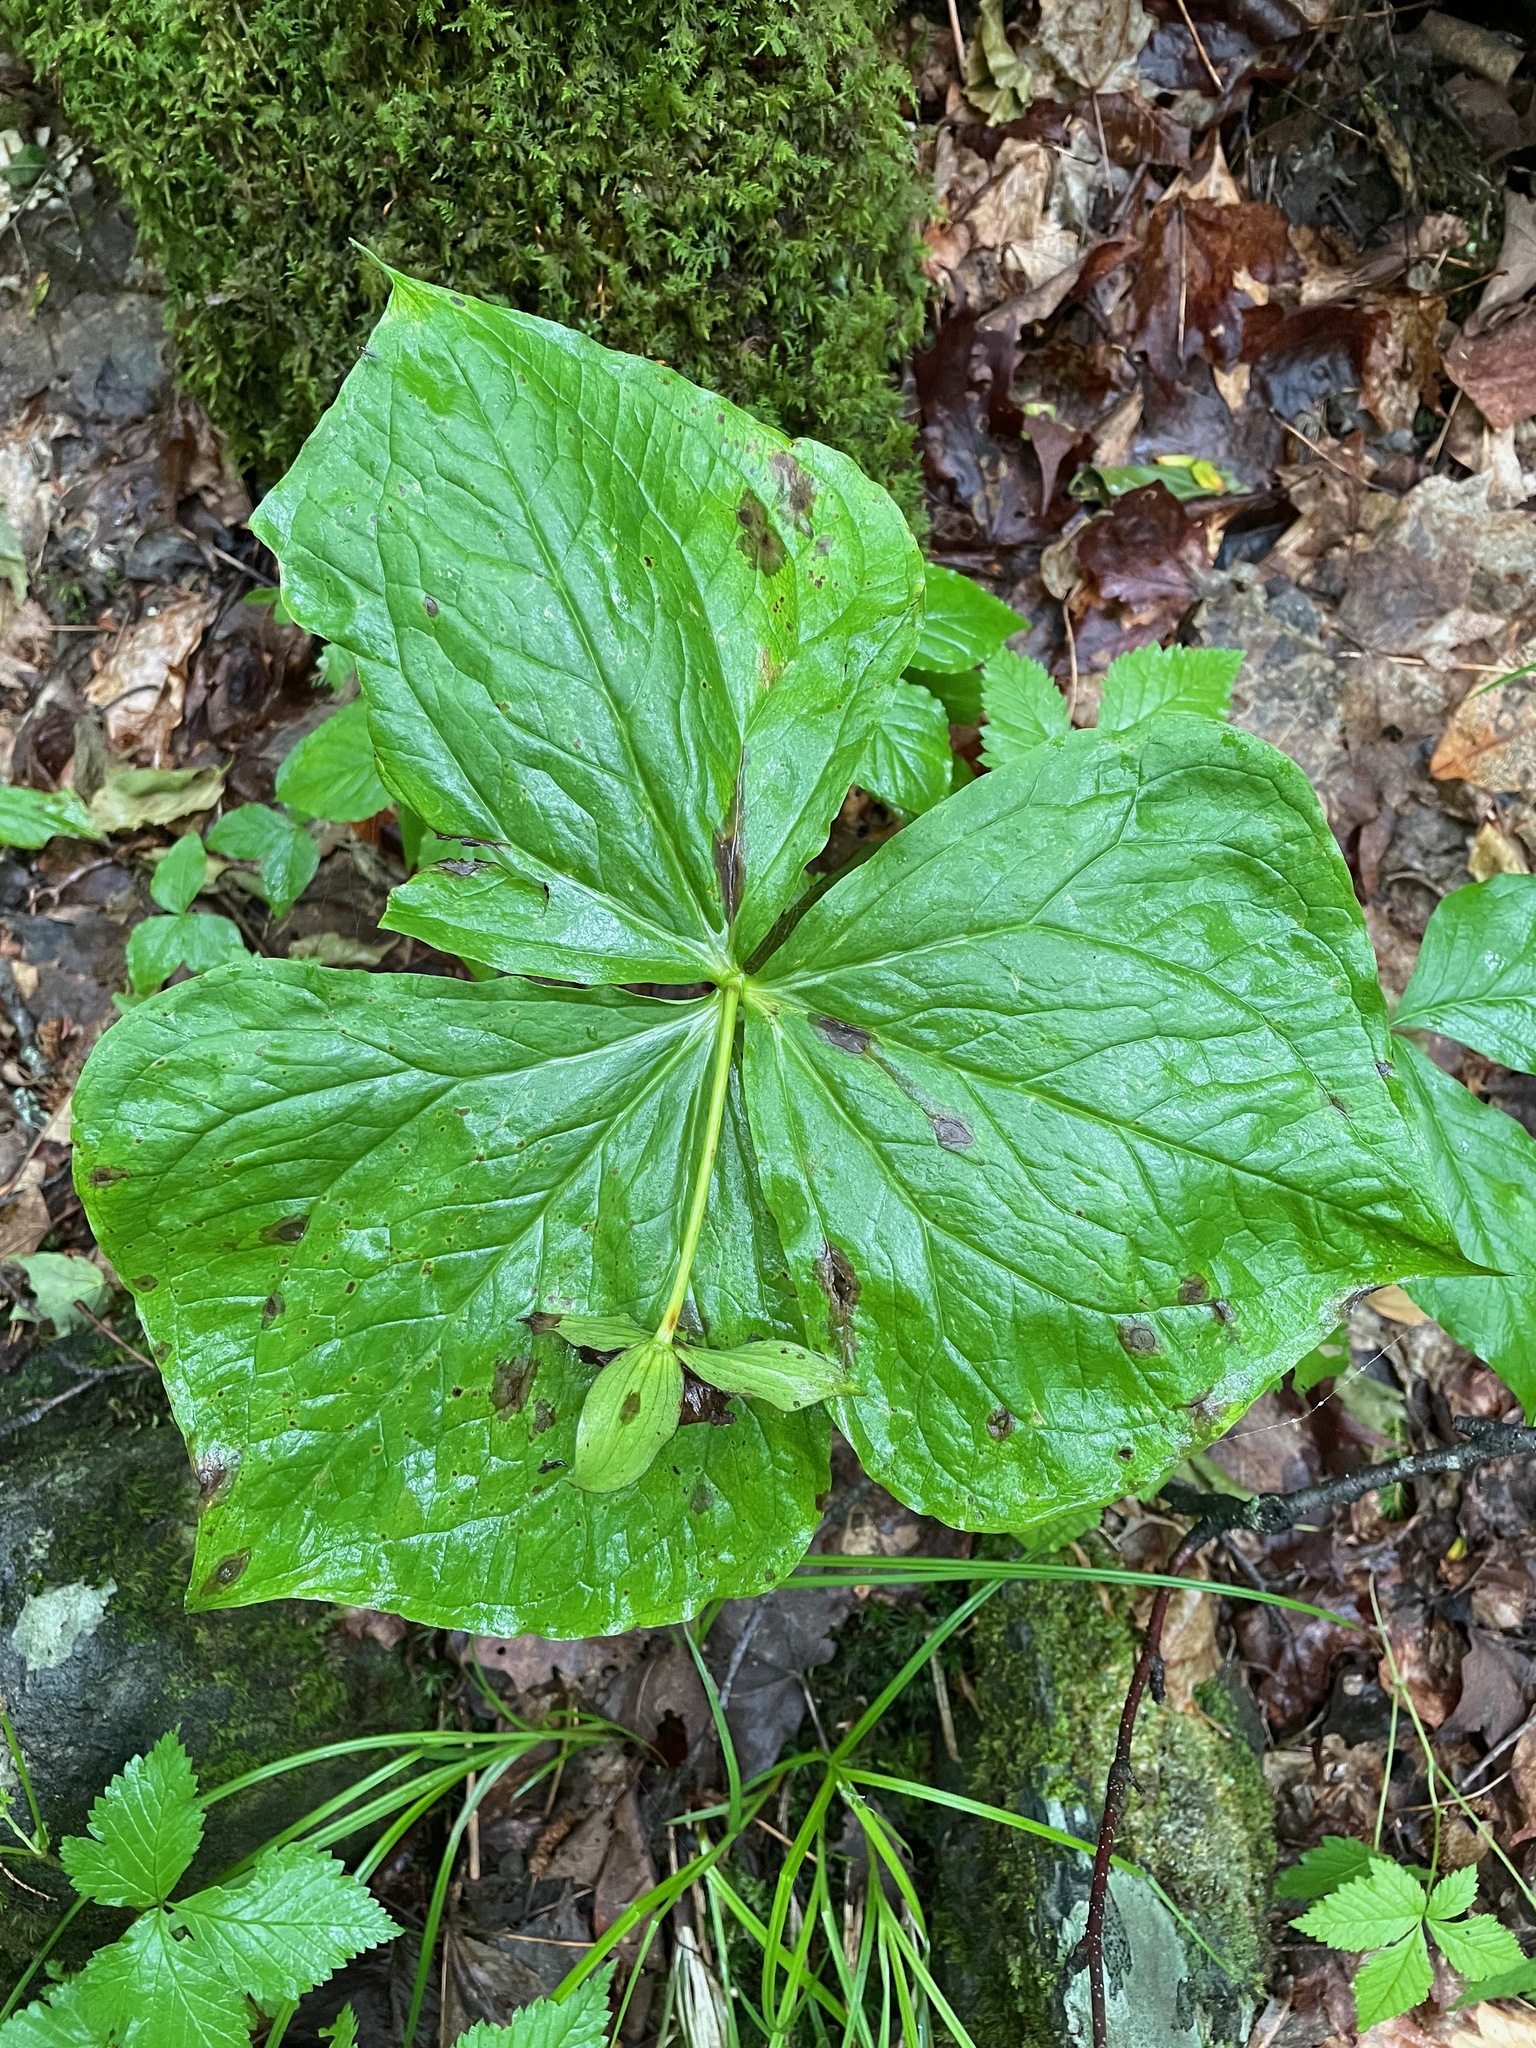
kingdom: Plantae
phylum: Tracheophyta
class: Liliopsida
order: Liliales
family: Melanthiaceae
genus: Trillium
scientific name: Trillium erectum
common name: Purple trillium
